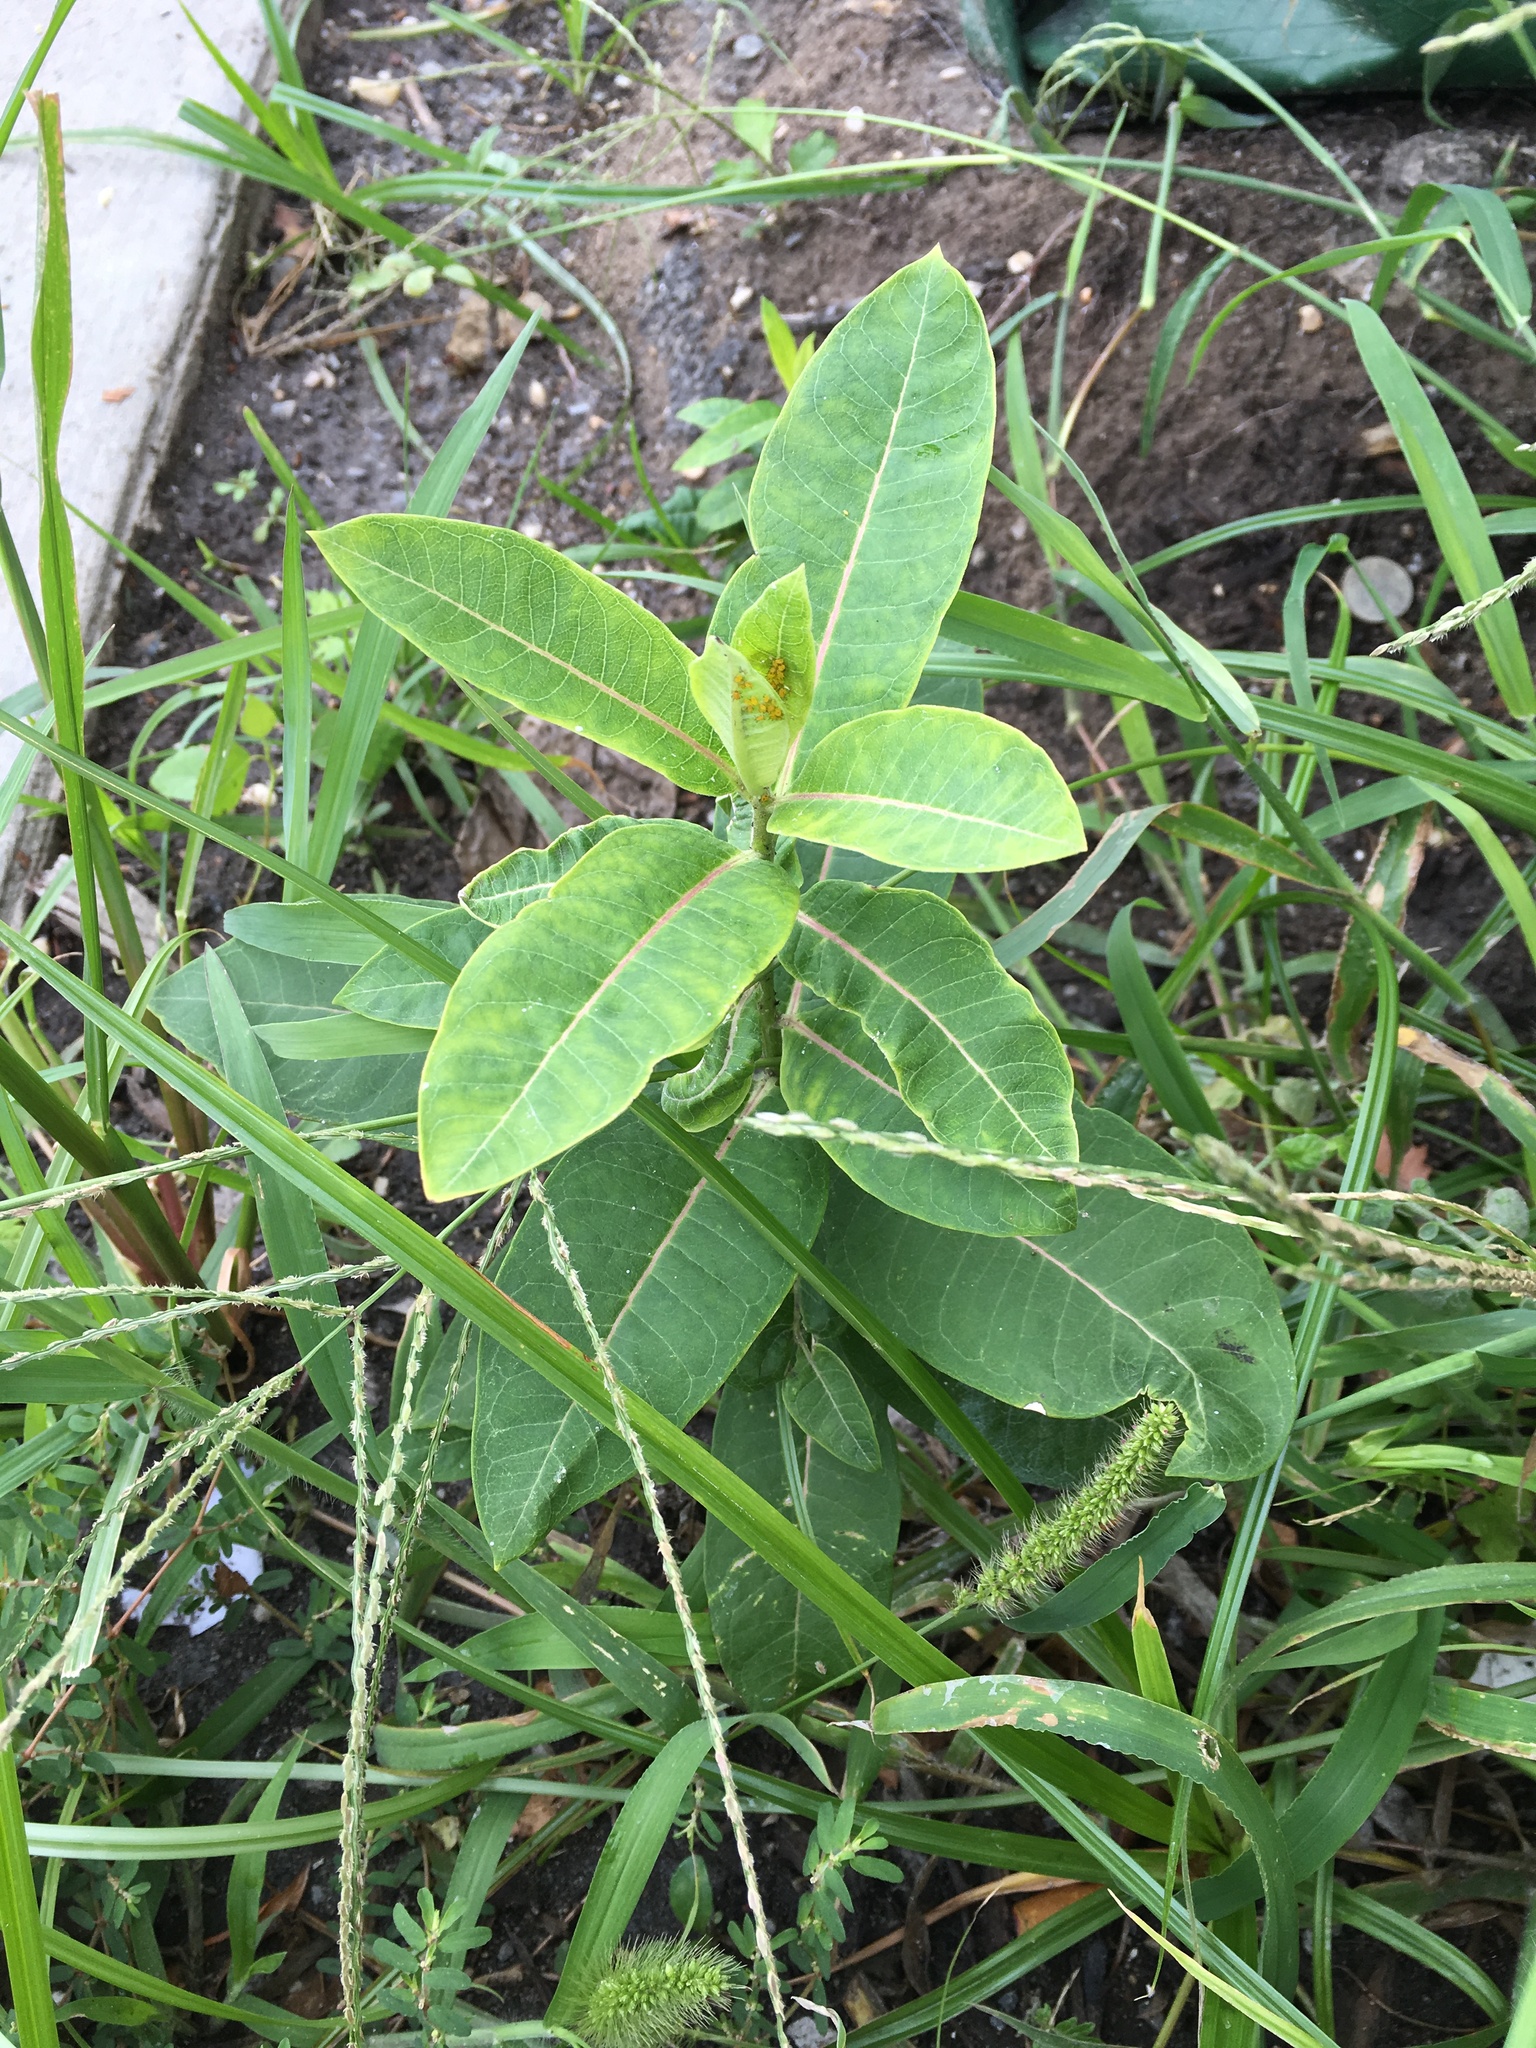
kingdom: Plantae
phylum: Tracheophyta
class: Magnoliopsida
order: Gentianales
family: Apocynaceae
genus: Asclepias
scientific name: Asclepias syriaca
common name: Common milkweed
